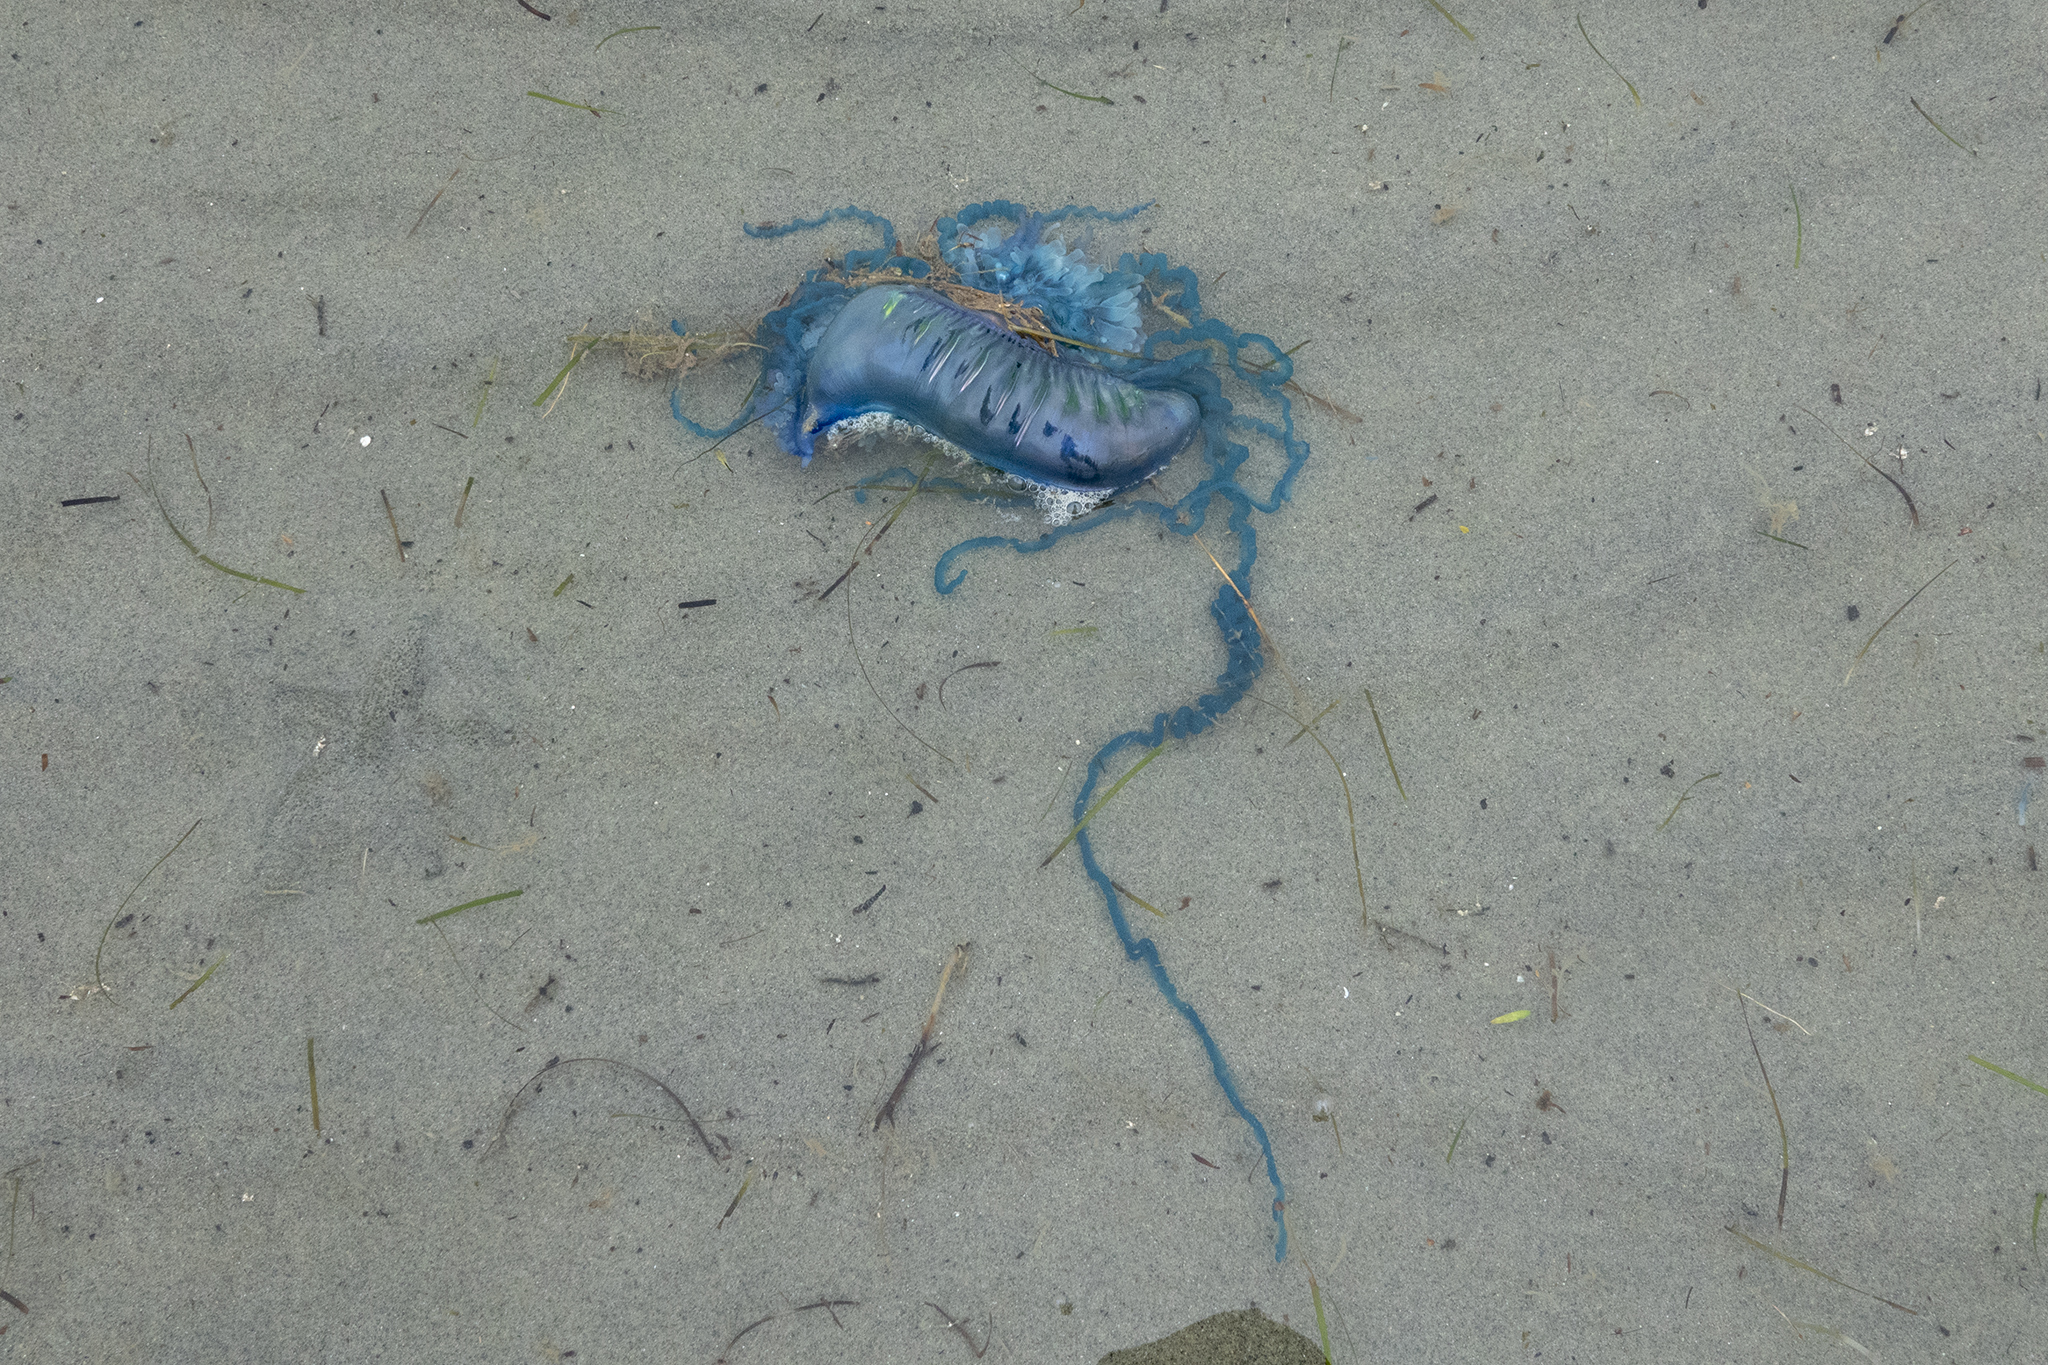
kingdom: Animalia
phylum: Cnidaria
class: Hydrozoa
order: Siphonophorae
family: Physaliidae
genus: Physalia
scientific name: Physalia physalis
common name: Portuguese man-of-war
